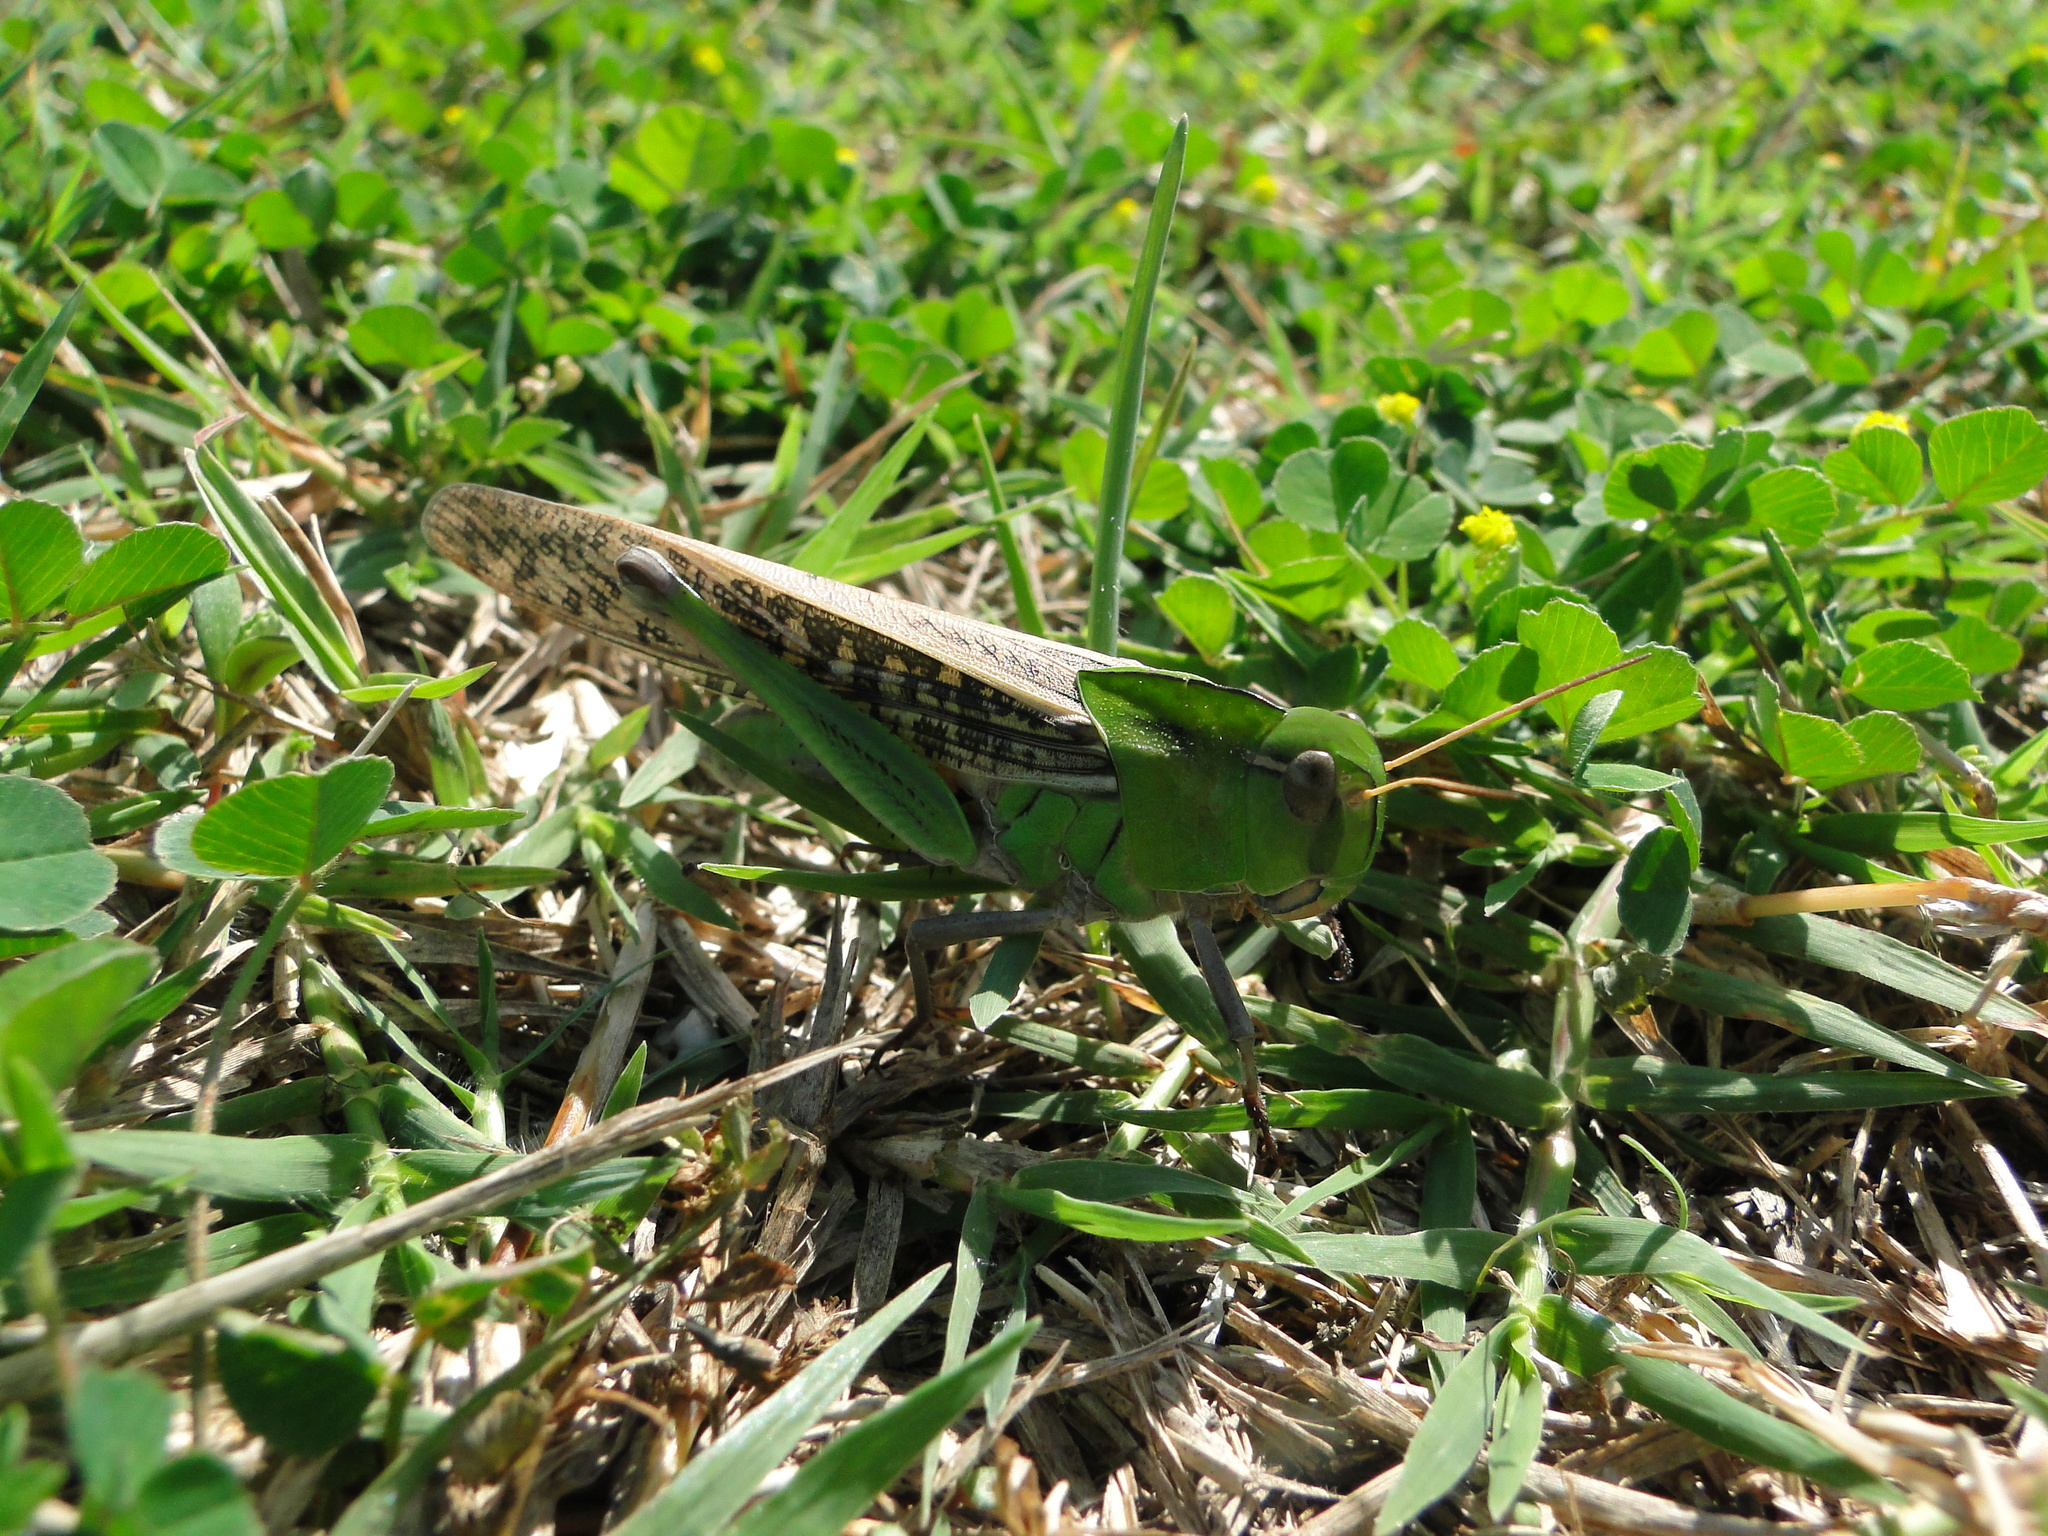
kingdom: Animalia
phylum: Arthropoda
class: Insecta
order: Orthoptera
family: Acrididae
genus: Locusta
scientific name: Locusta migratoria
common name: Migratory locust
